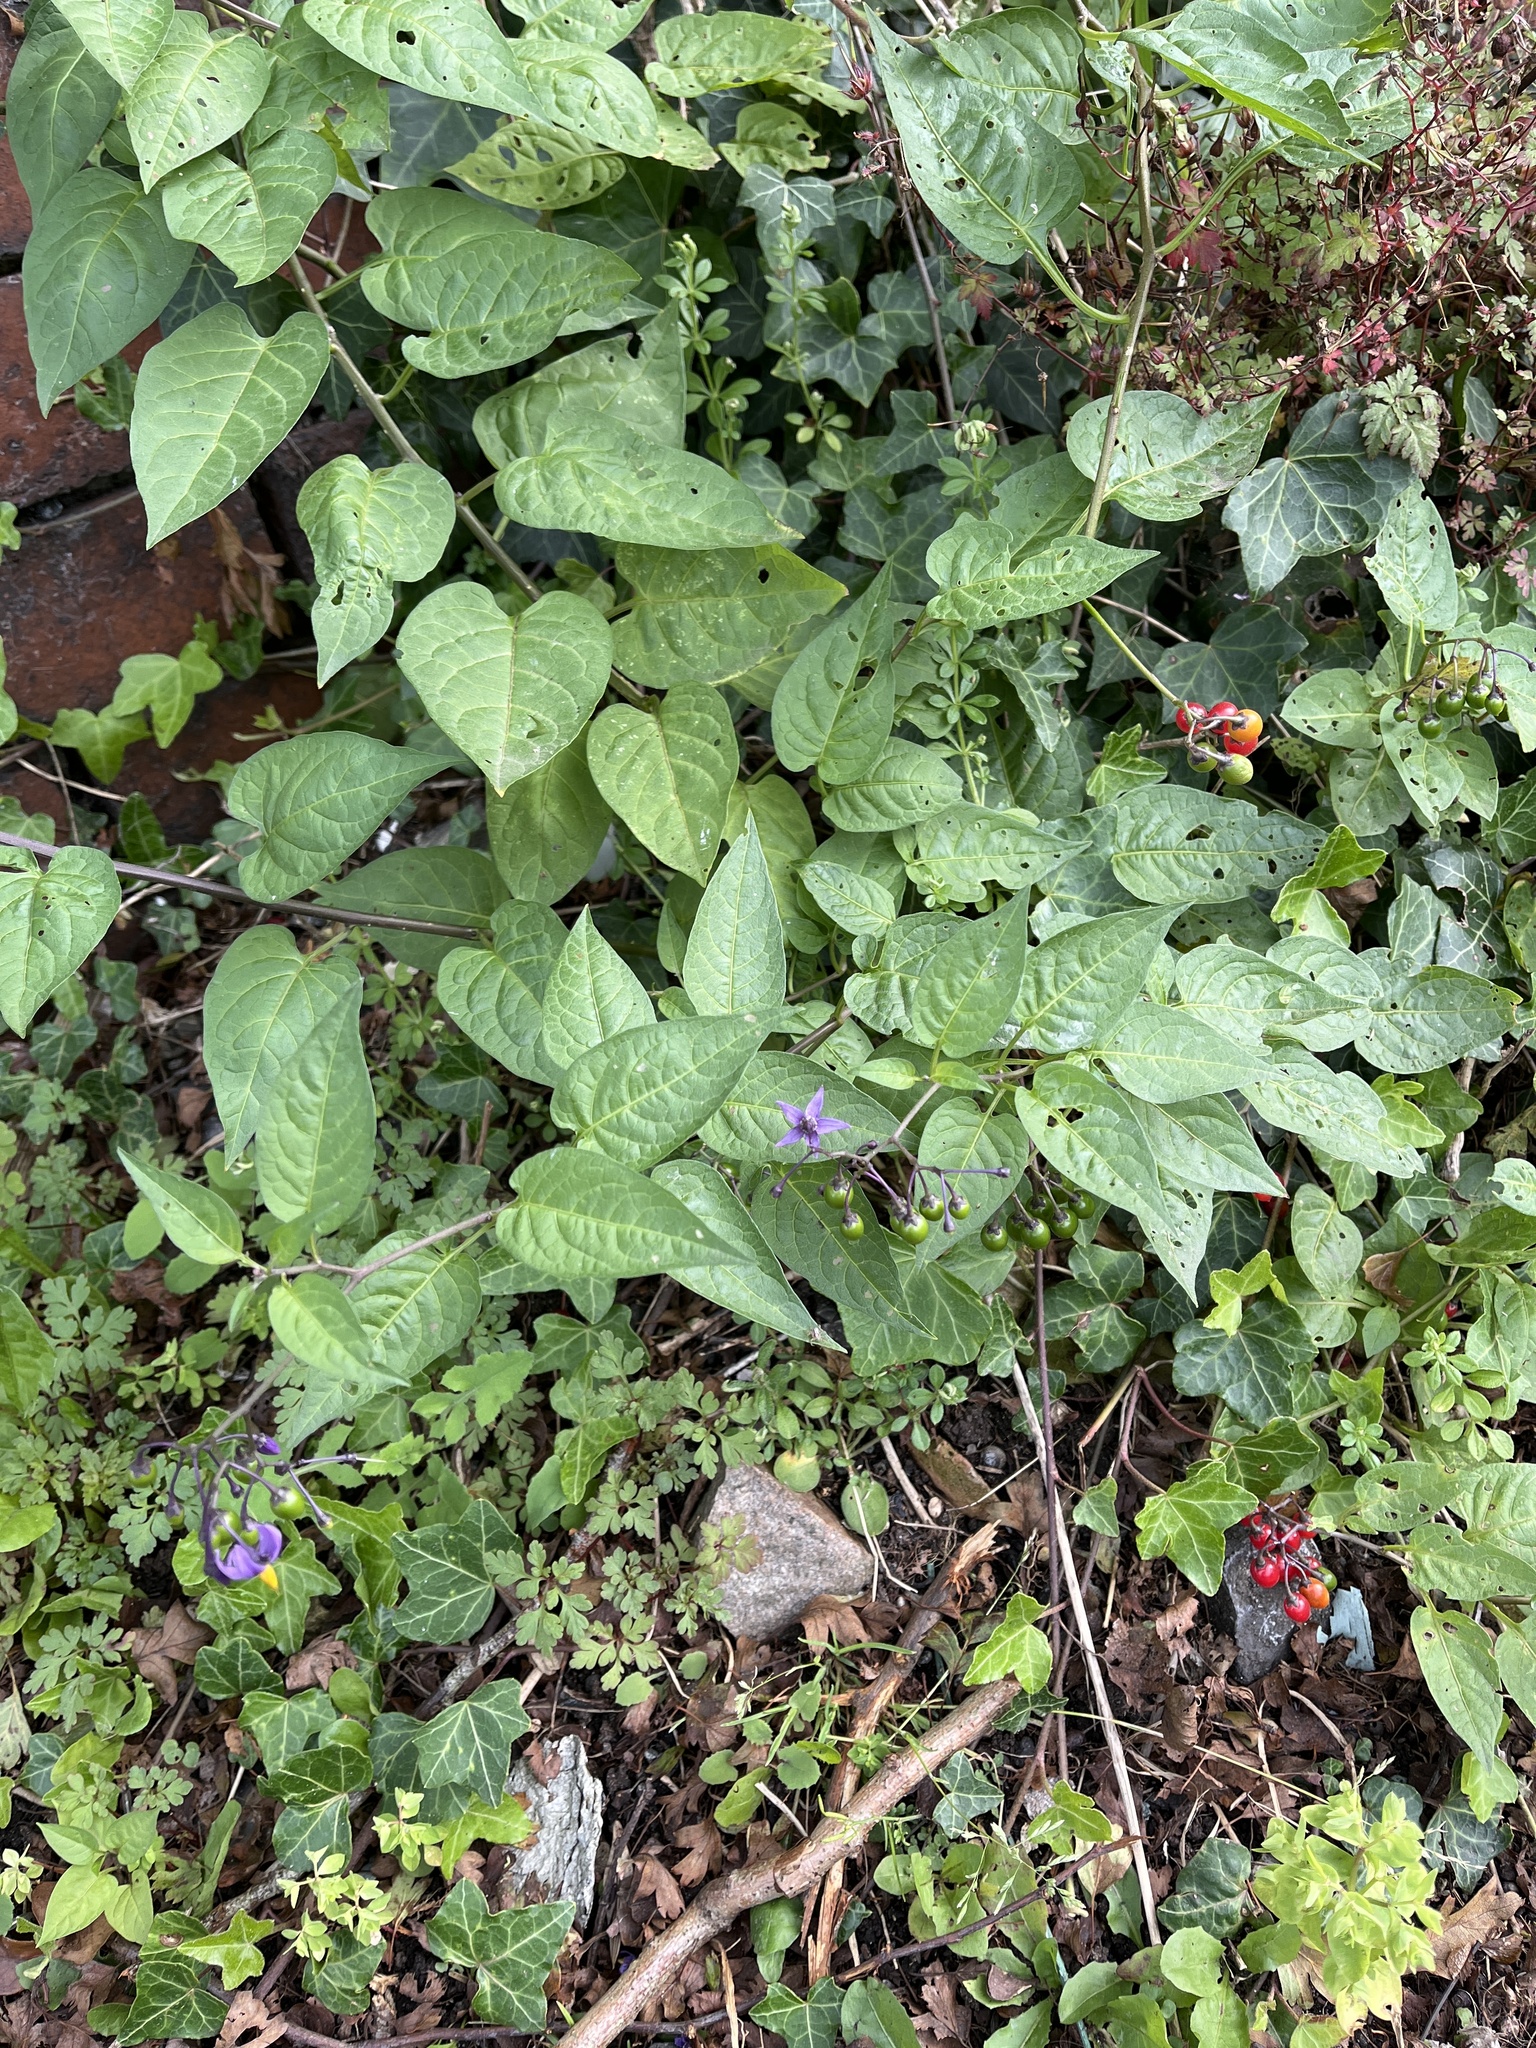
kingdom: Plantae
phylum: Tracheophyta
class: Magnoliopsida
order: Solanales
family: Solanaceae
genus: Solanum
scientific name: Solanum dulcamara
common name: Climbing nightshade
